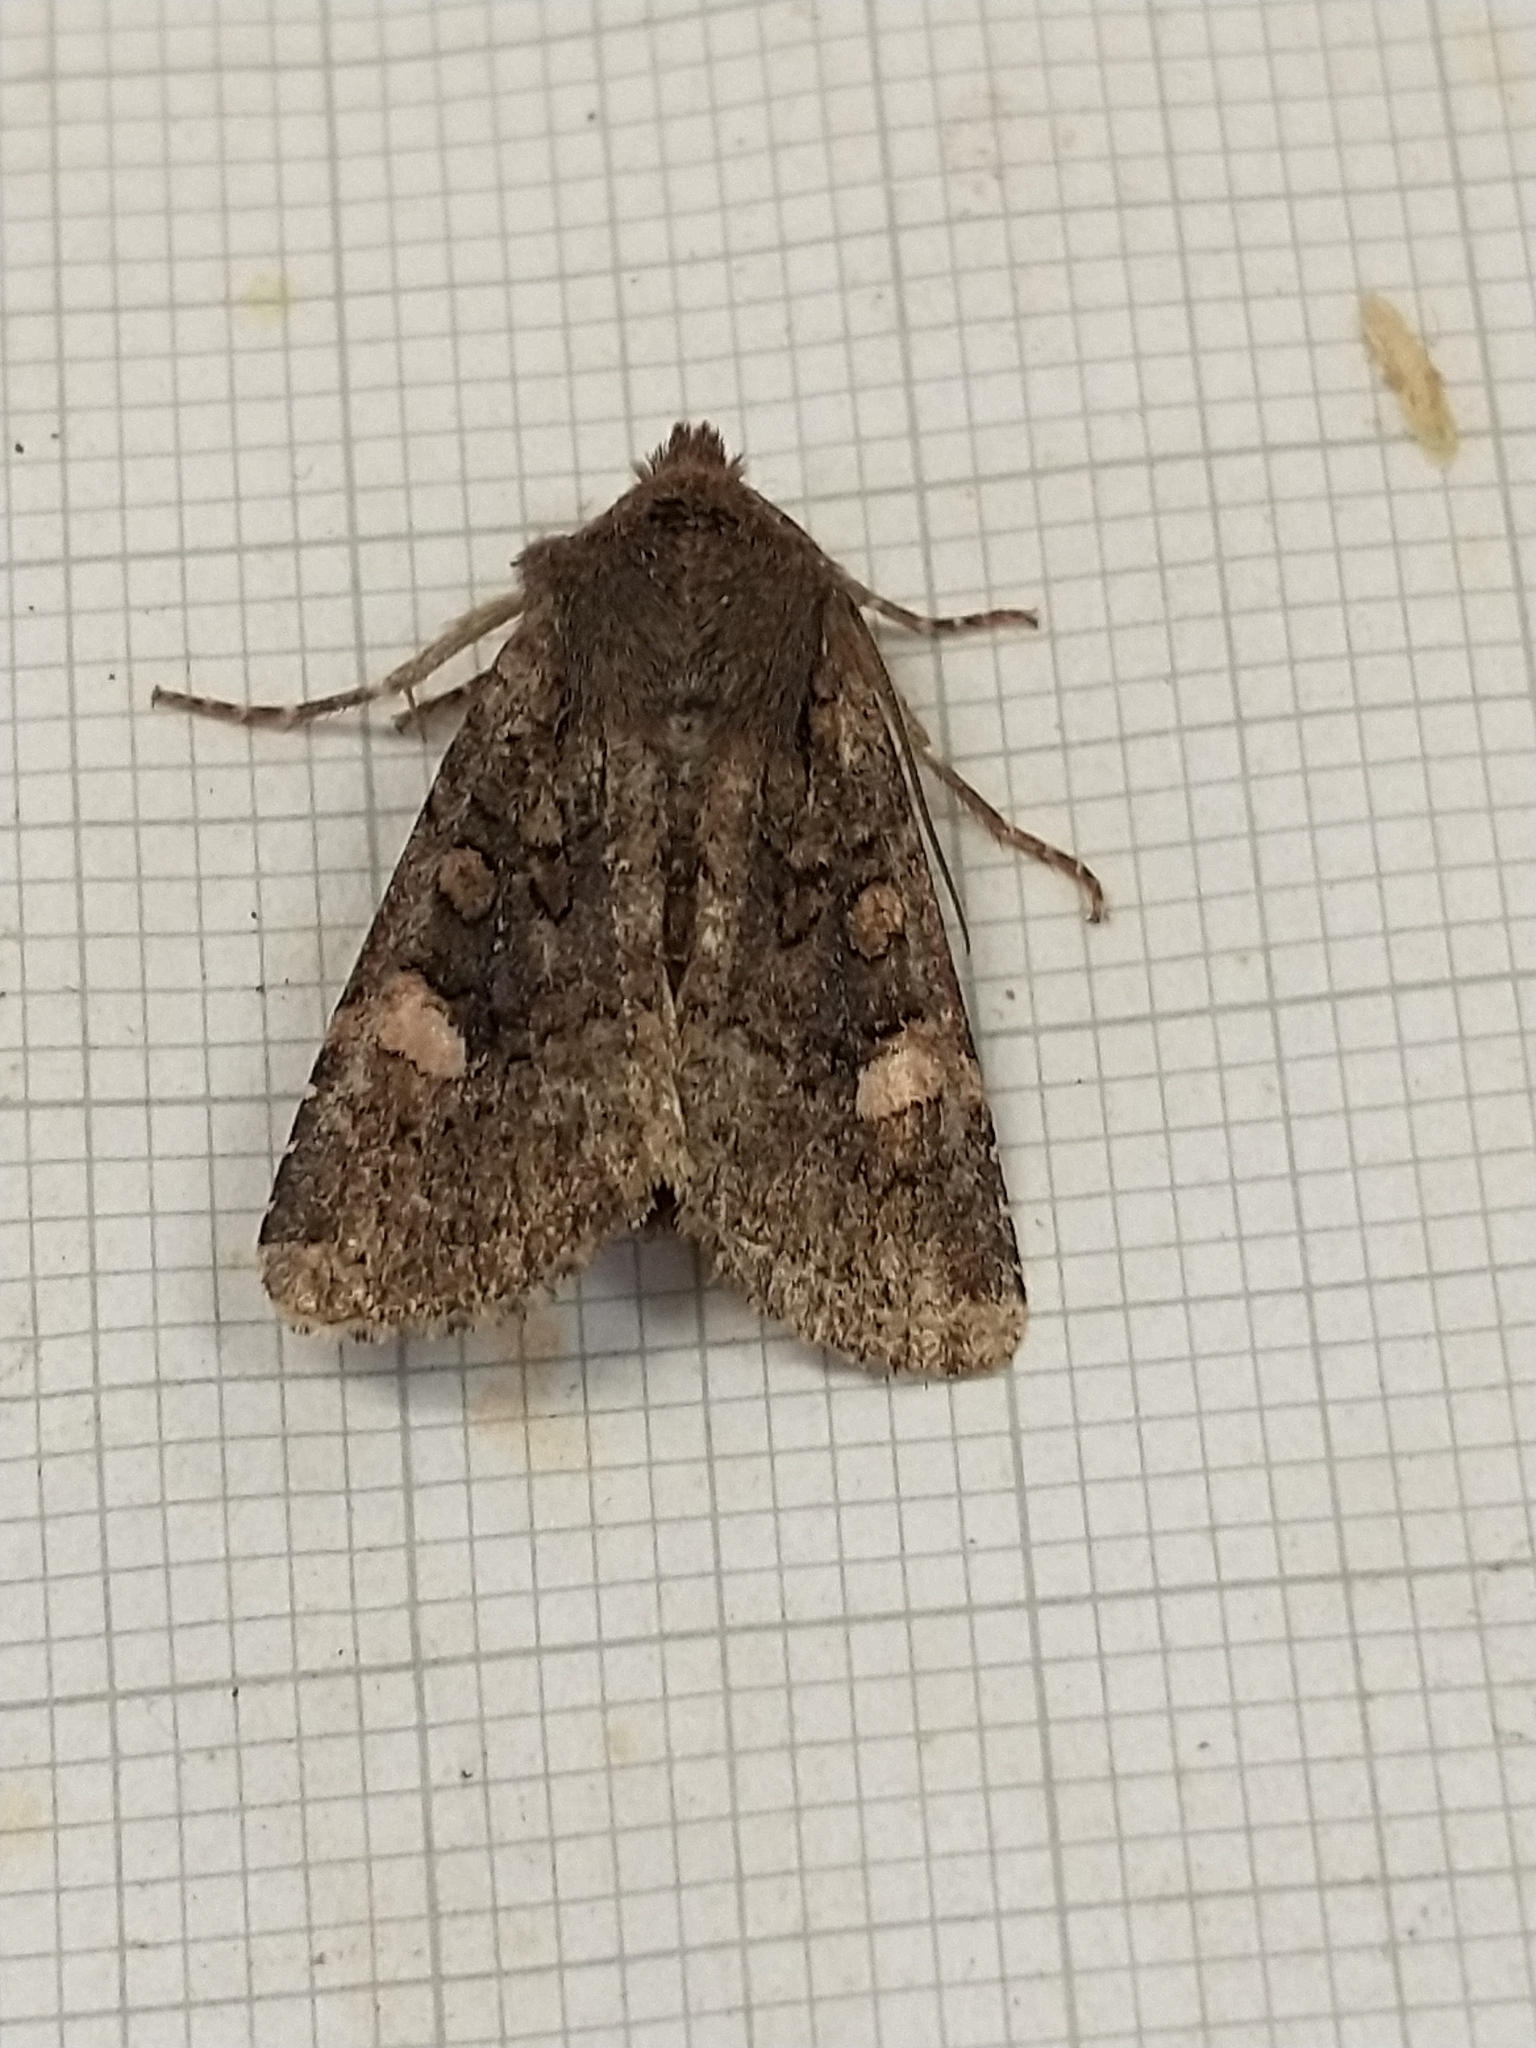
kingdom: Animalia
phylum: Arthropoda
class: Insecta
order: Lepidoptera
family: Noctuidae
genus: Dryobota
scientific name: Dryobota labecula
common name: Oak rustic
